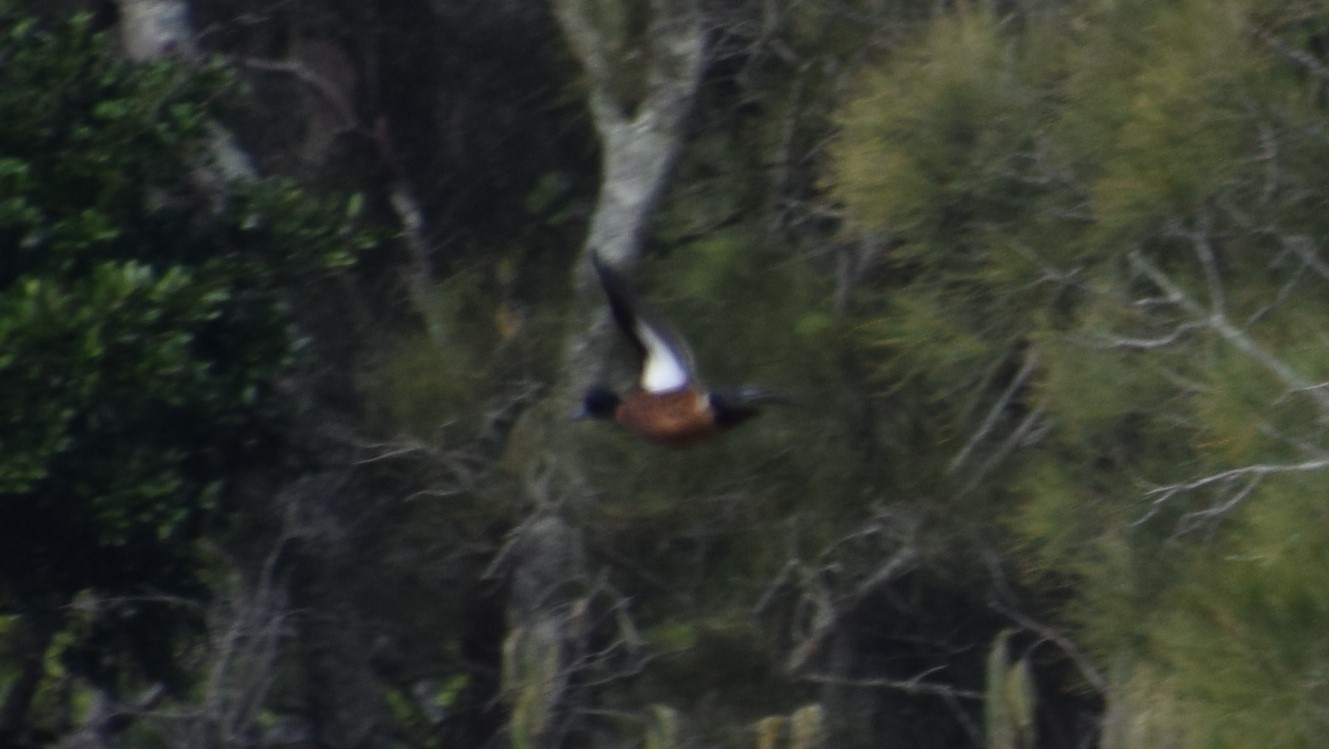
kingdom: Animalia
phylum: Chordata
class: Aves
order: Anseriformes
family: Anatidae
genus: Anas
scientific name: Anas castanea
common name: Chestnut teal
